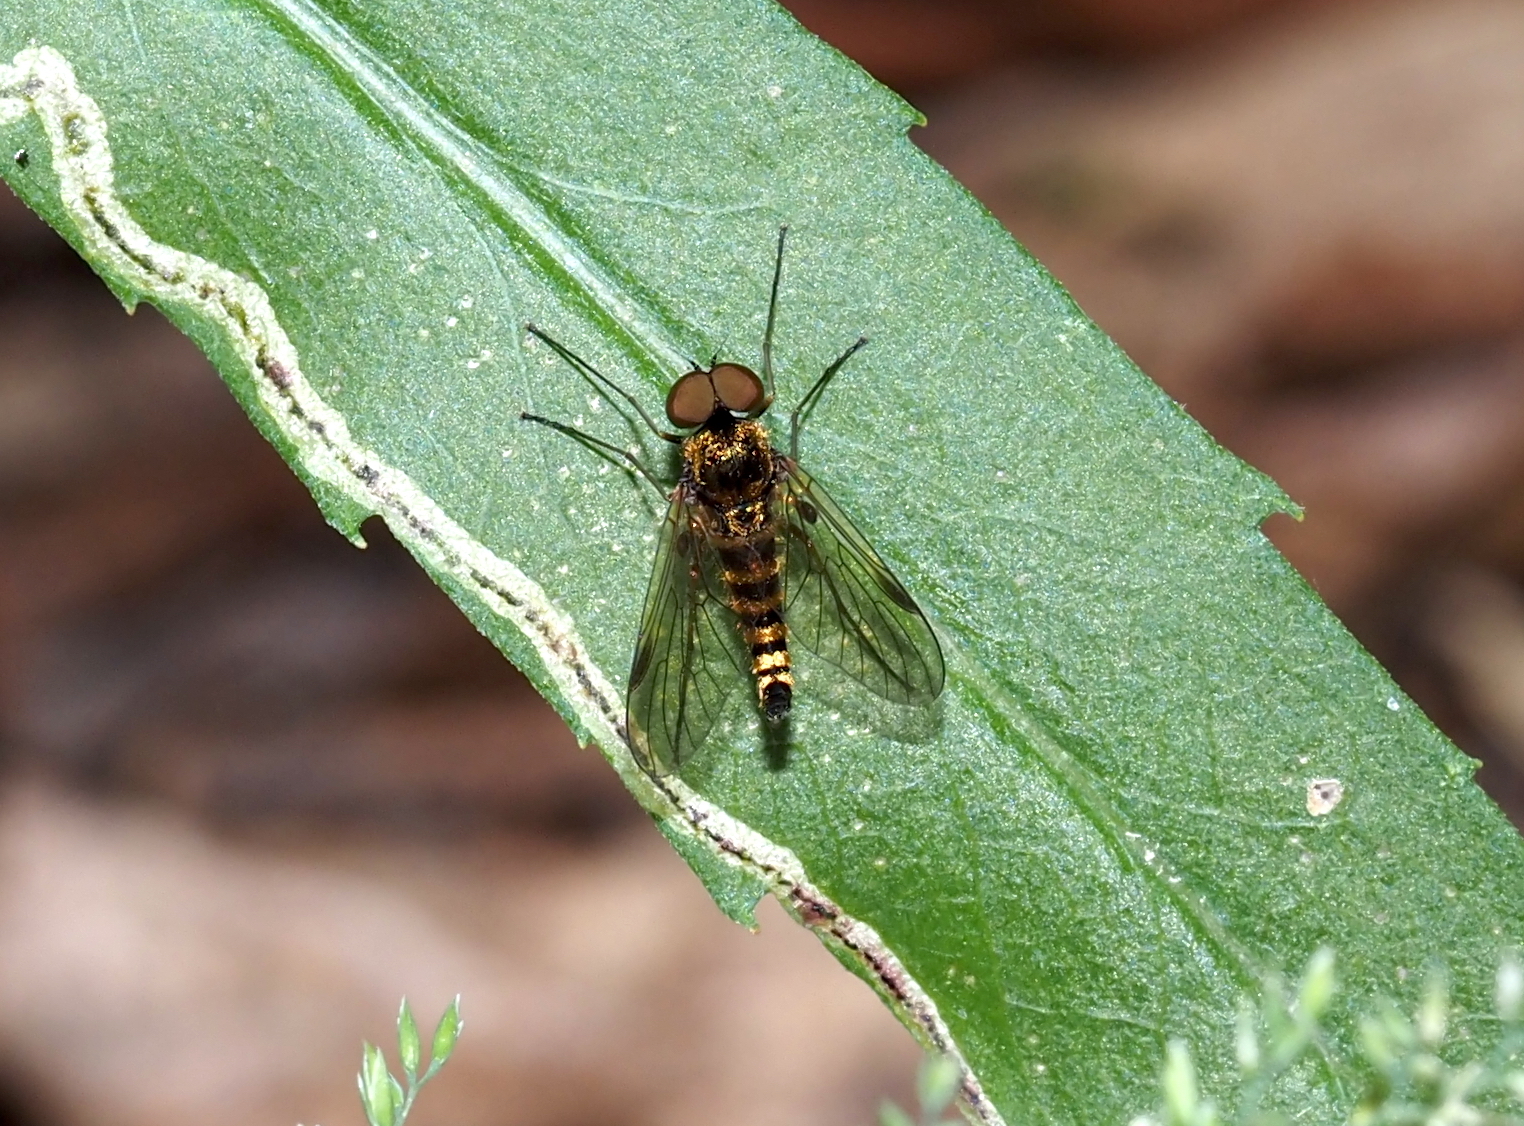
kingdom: Animalia
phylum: Arthropoda
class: Insecta
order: Diptera
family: Rhagionidae
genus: Chrysopilus
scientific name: Chrysopilus fasciatus
